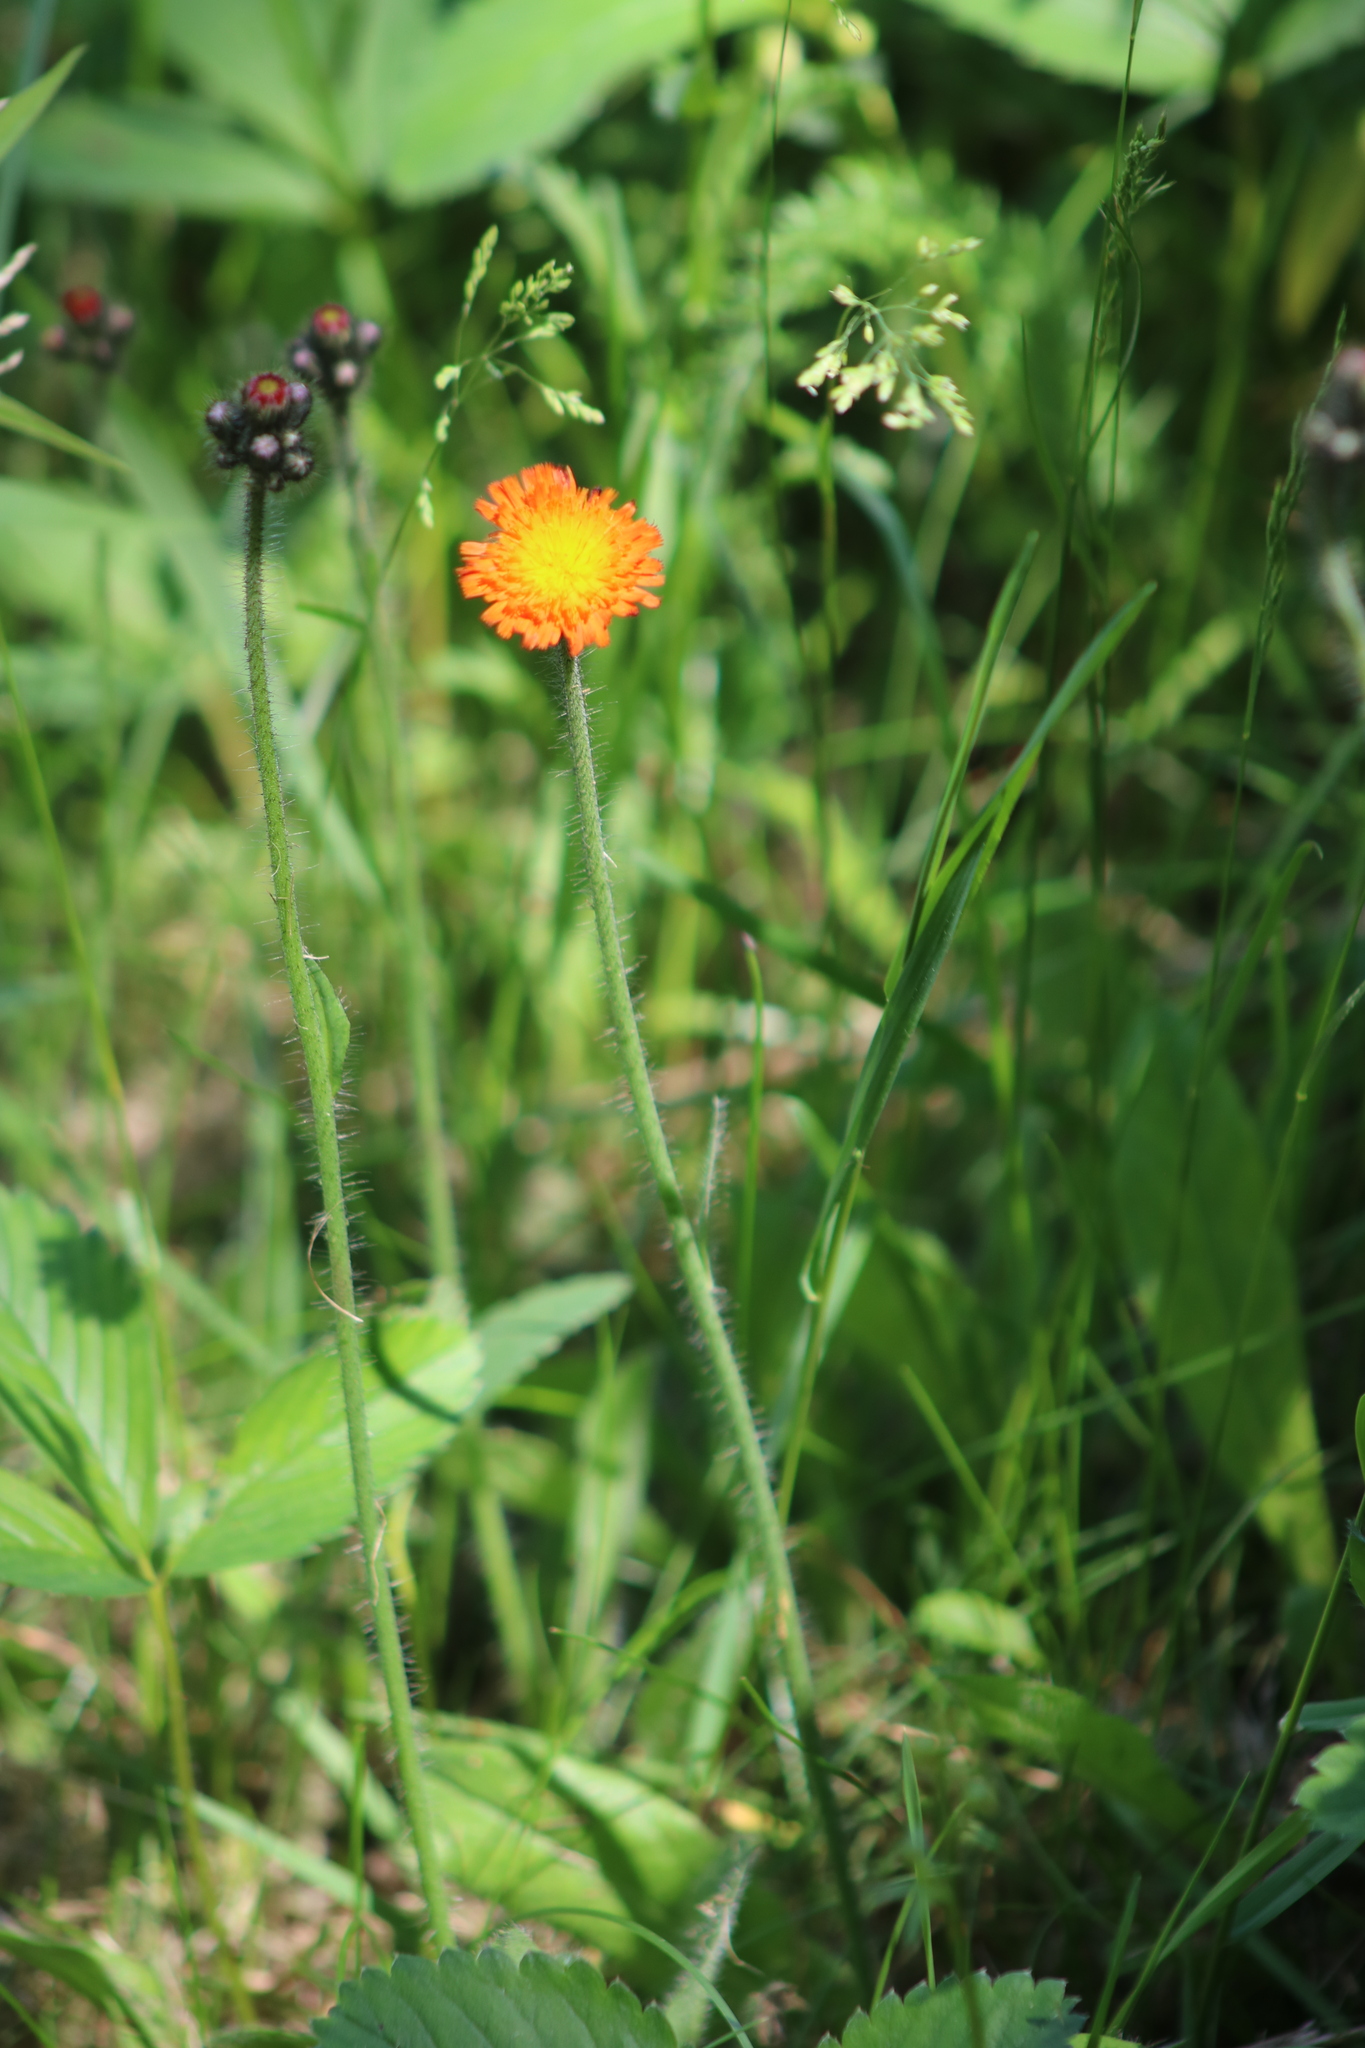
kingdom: Plantae
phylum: Tracheophyta
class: Magnoliopsida
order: Asterales
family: Asteraceae
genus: Pilosella
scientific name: Pilosella aurantiaca
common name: Fox-and-cubs
